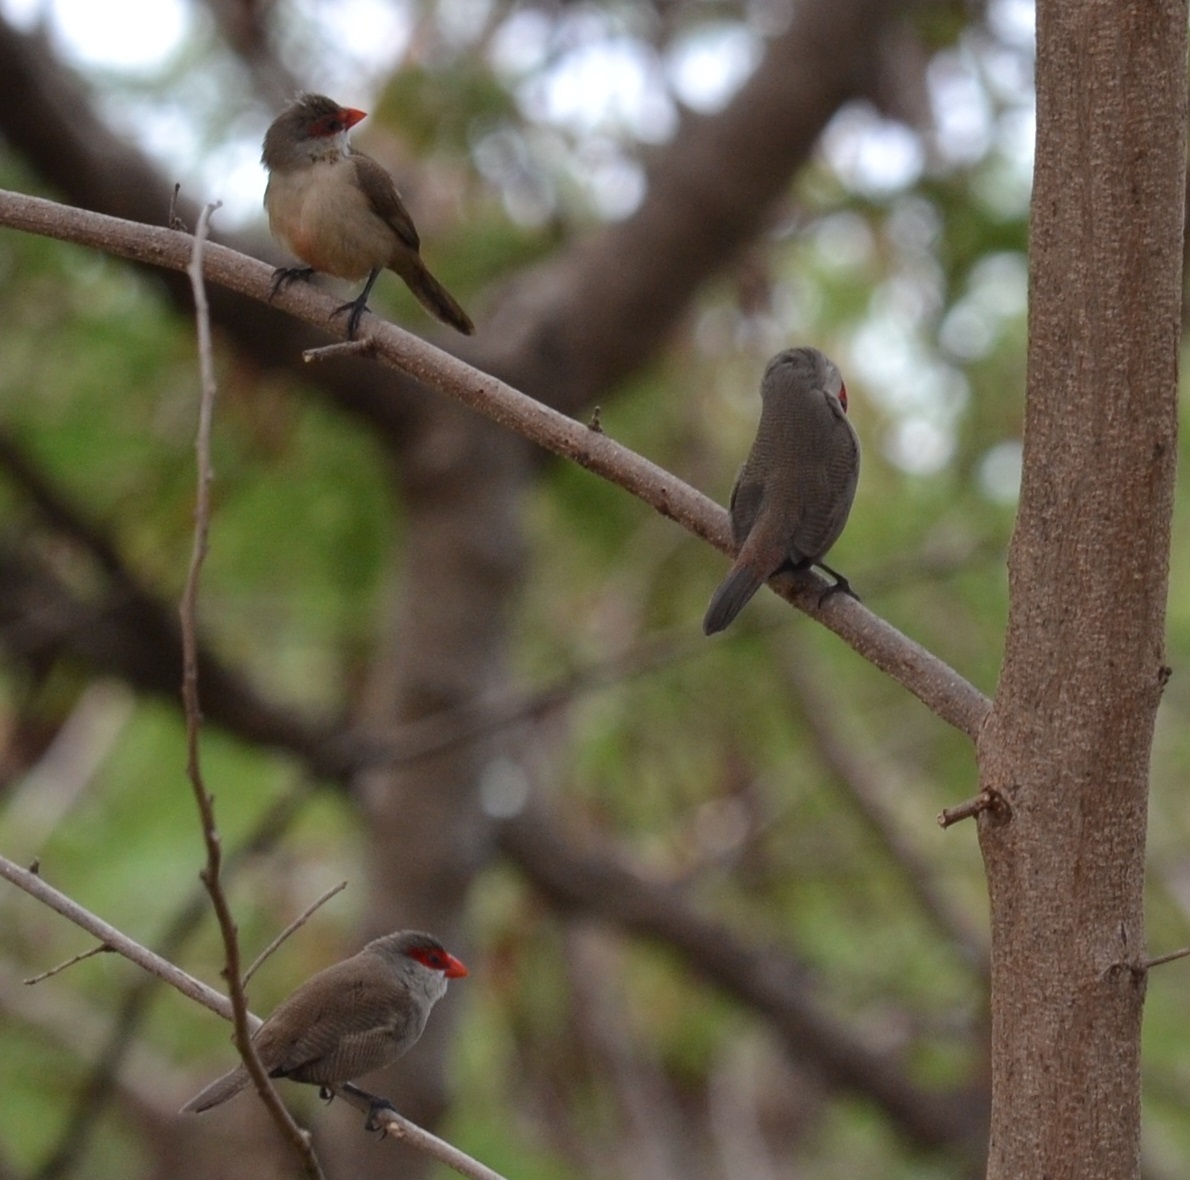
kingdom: Animalia
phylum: Chordata
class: Aves
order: Passeriformes
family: Estrildidae
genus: Estrilda
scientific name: Estrilda astrild
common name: Common waxbill
